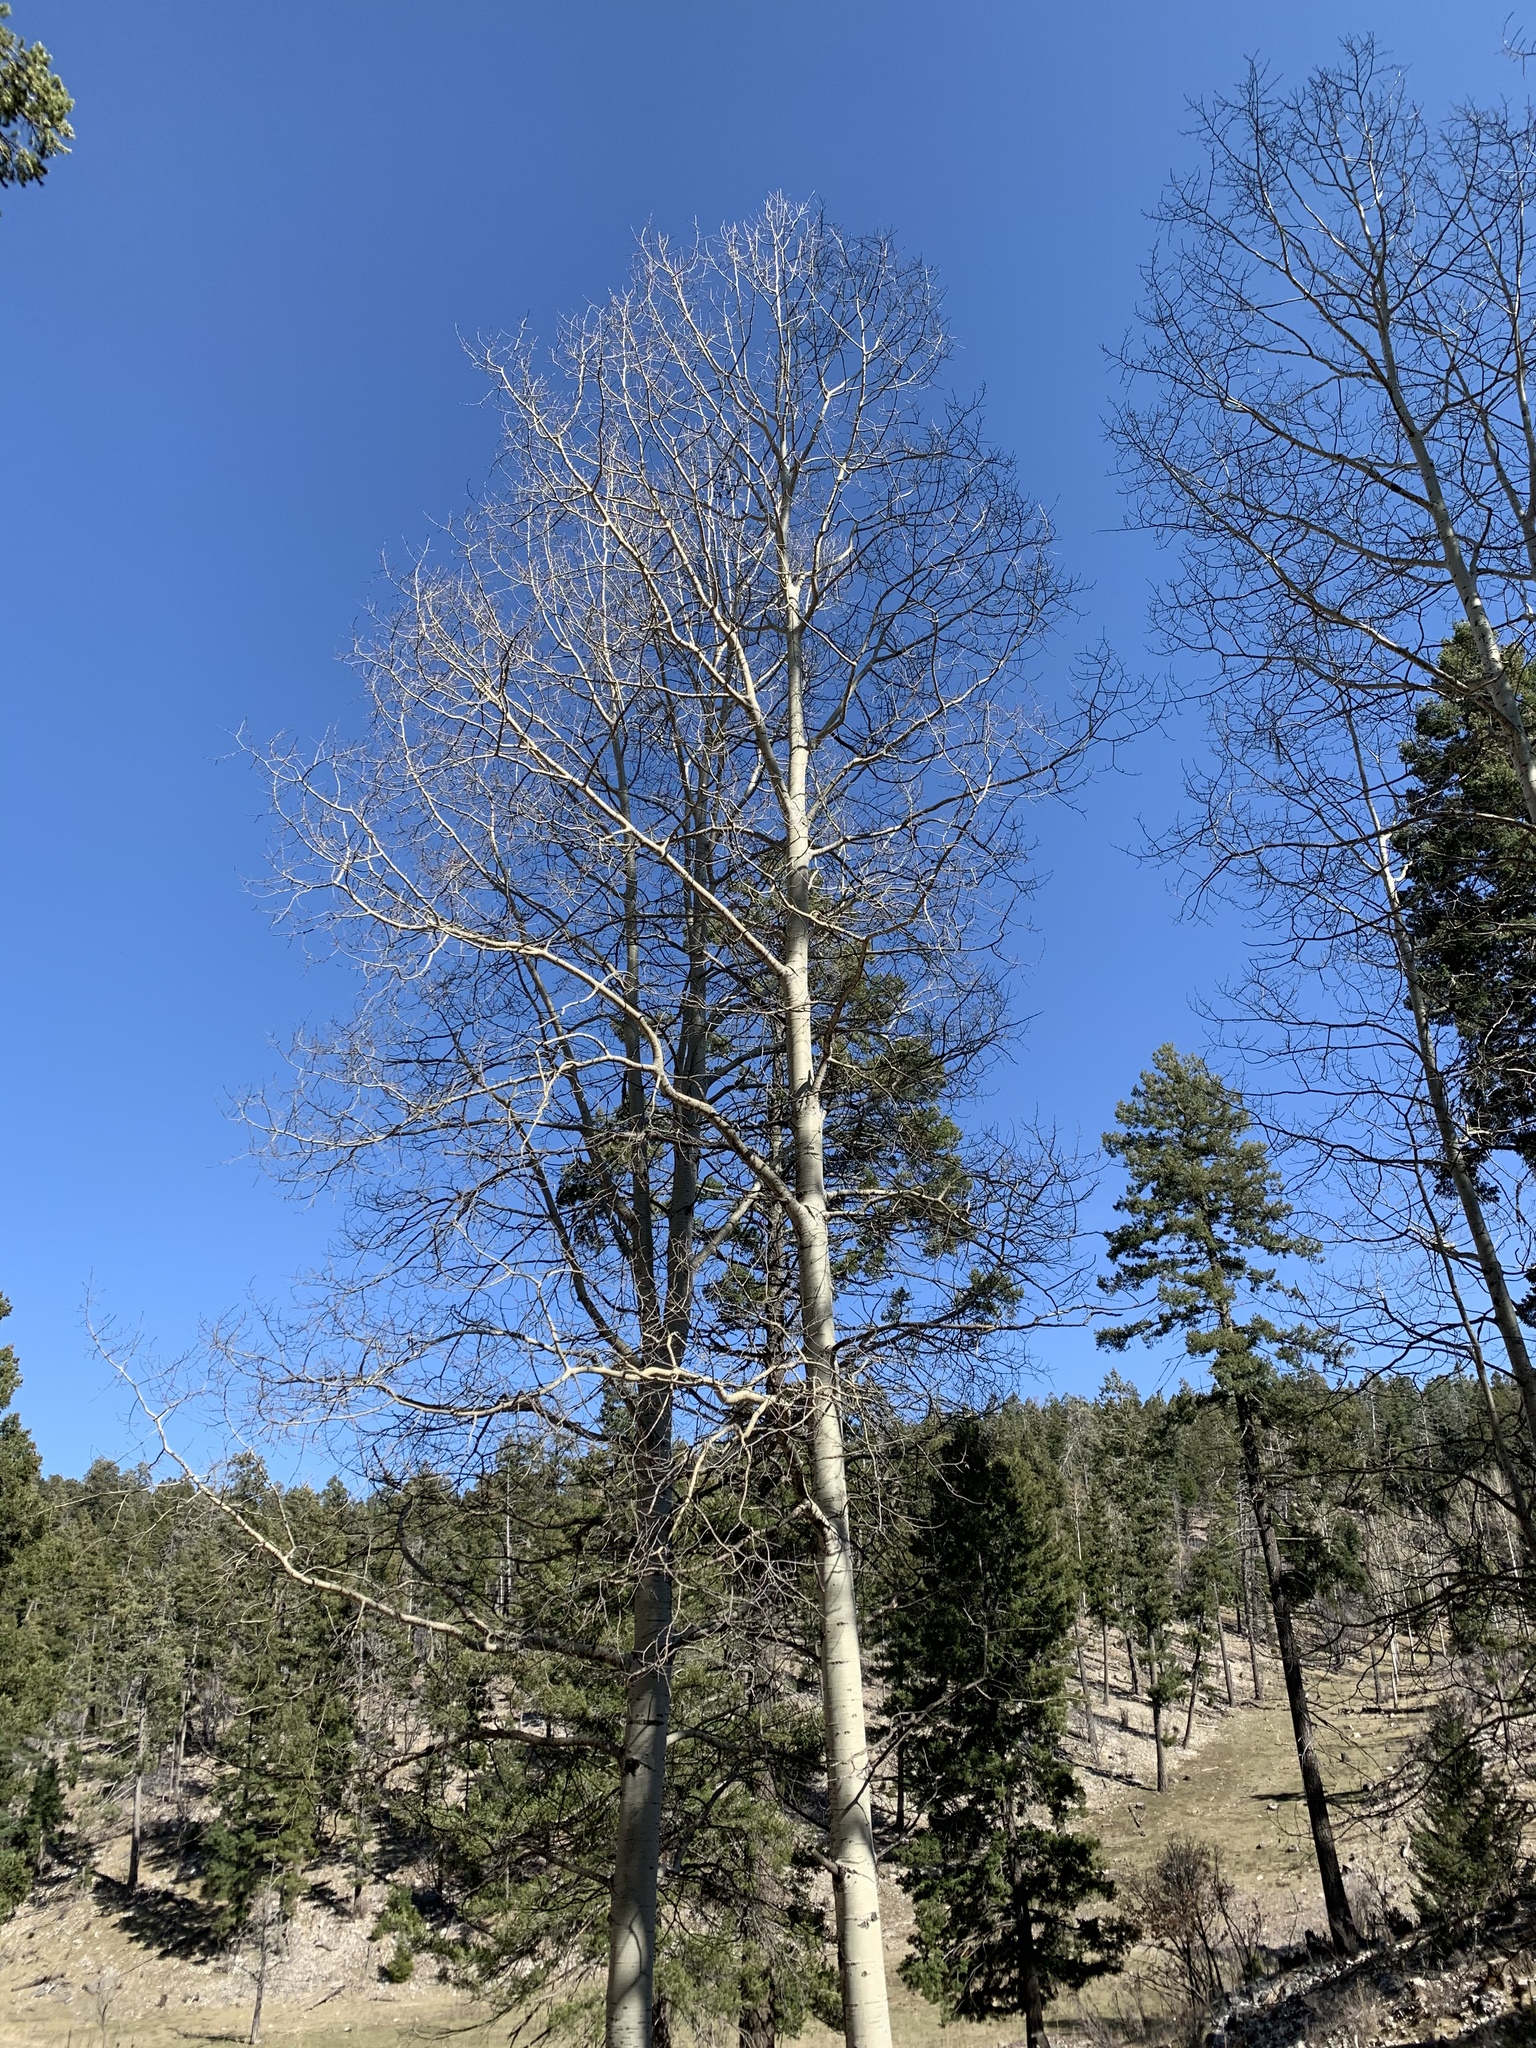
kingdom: Plantae
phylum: Tracheophyta
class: Magnoliopsida
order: Malpighiales
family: Salicaceae
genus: Populus
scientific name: Populus tremuloides
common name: Quaking aspen
